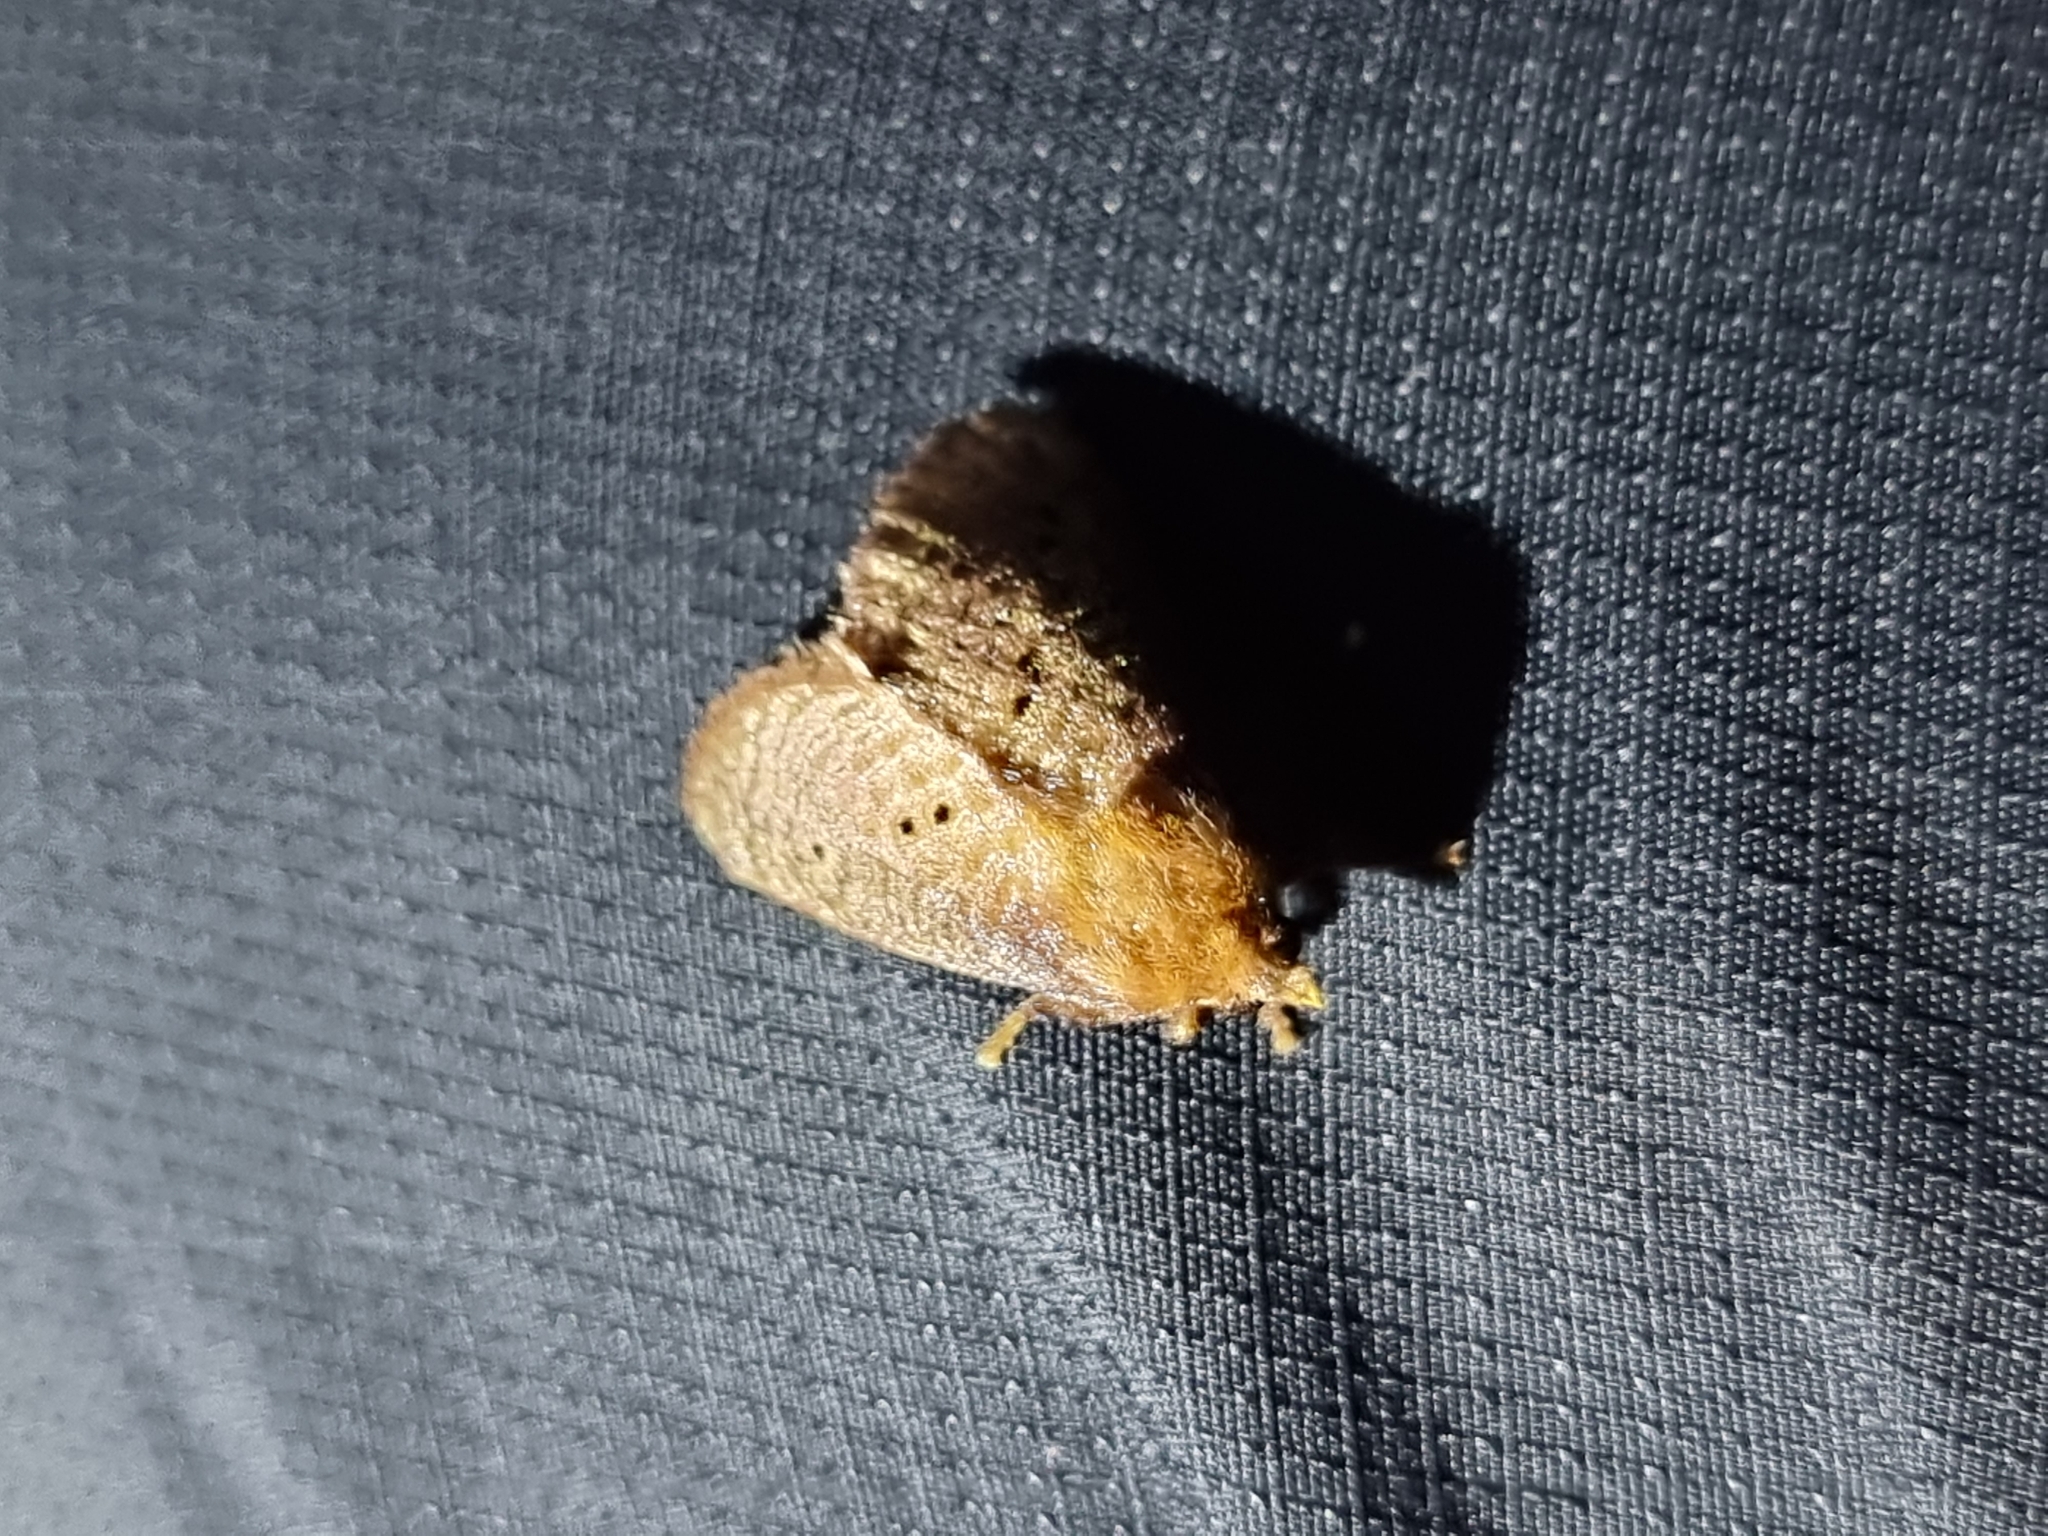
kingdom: Animalia
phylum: Arthropoda
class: Insecta
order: Lepidoptera
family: Limacodidae
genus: Doratifera
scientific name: Doratifera quadriguttata
